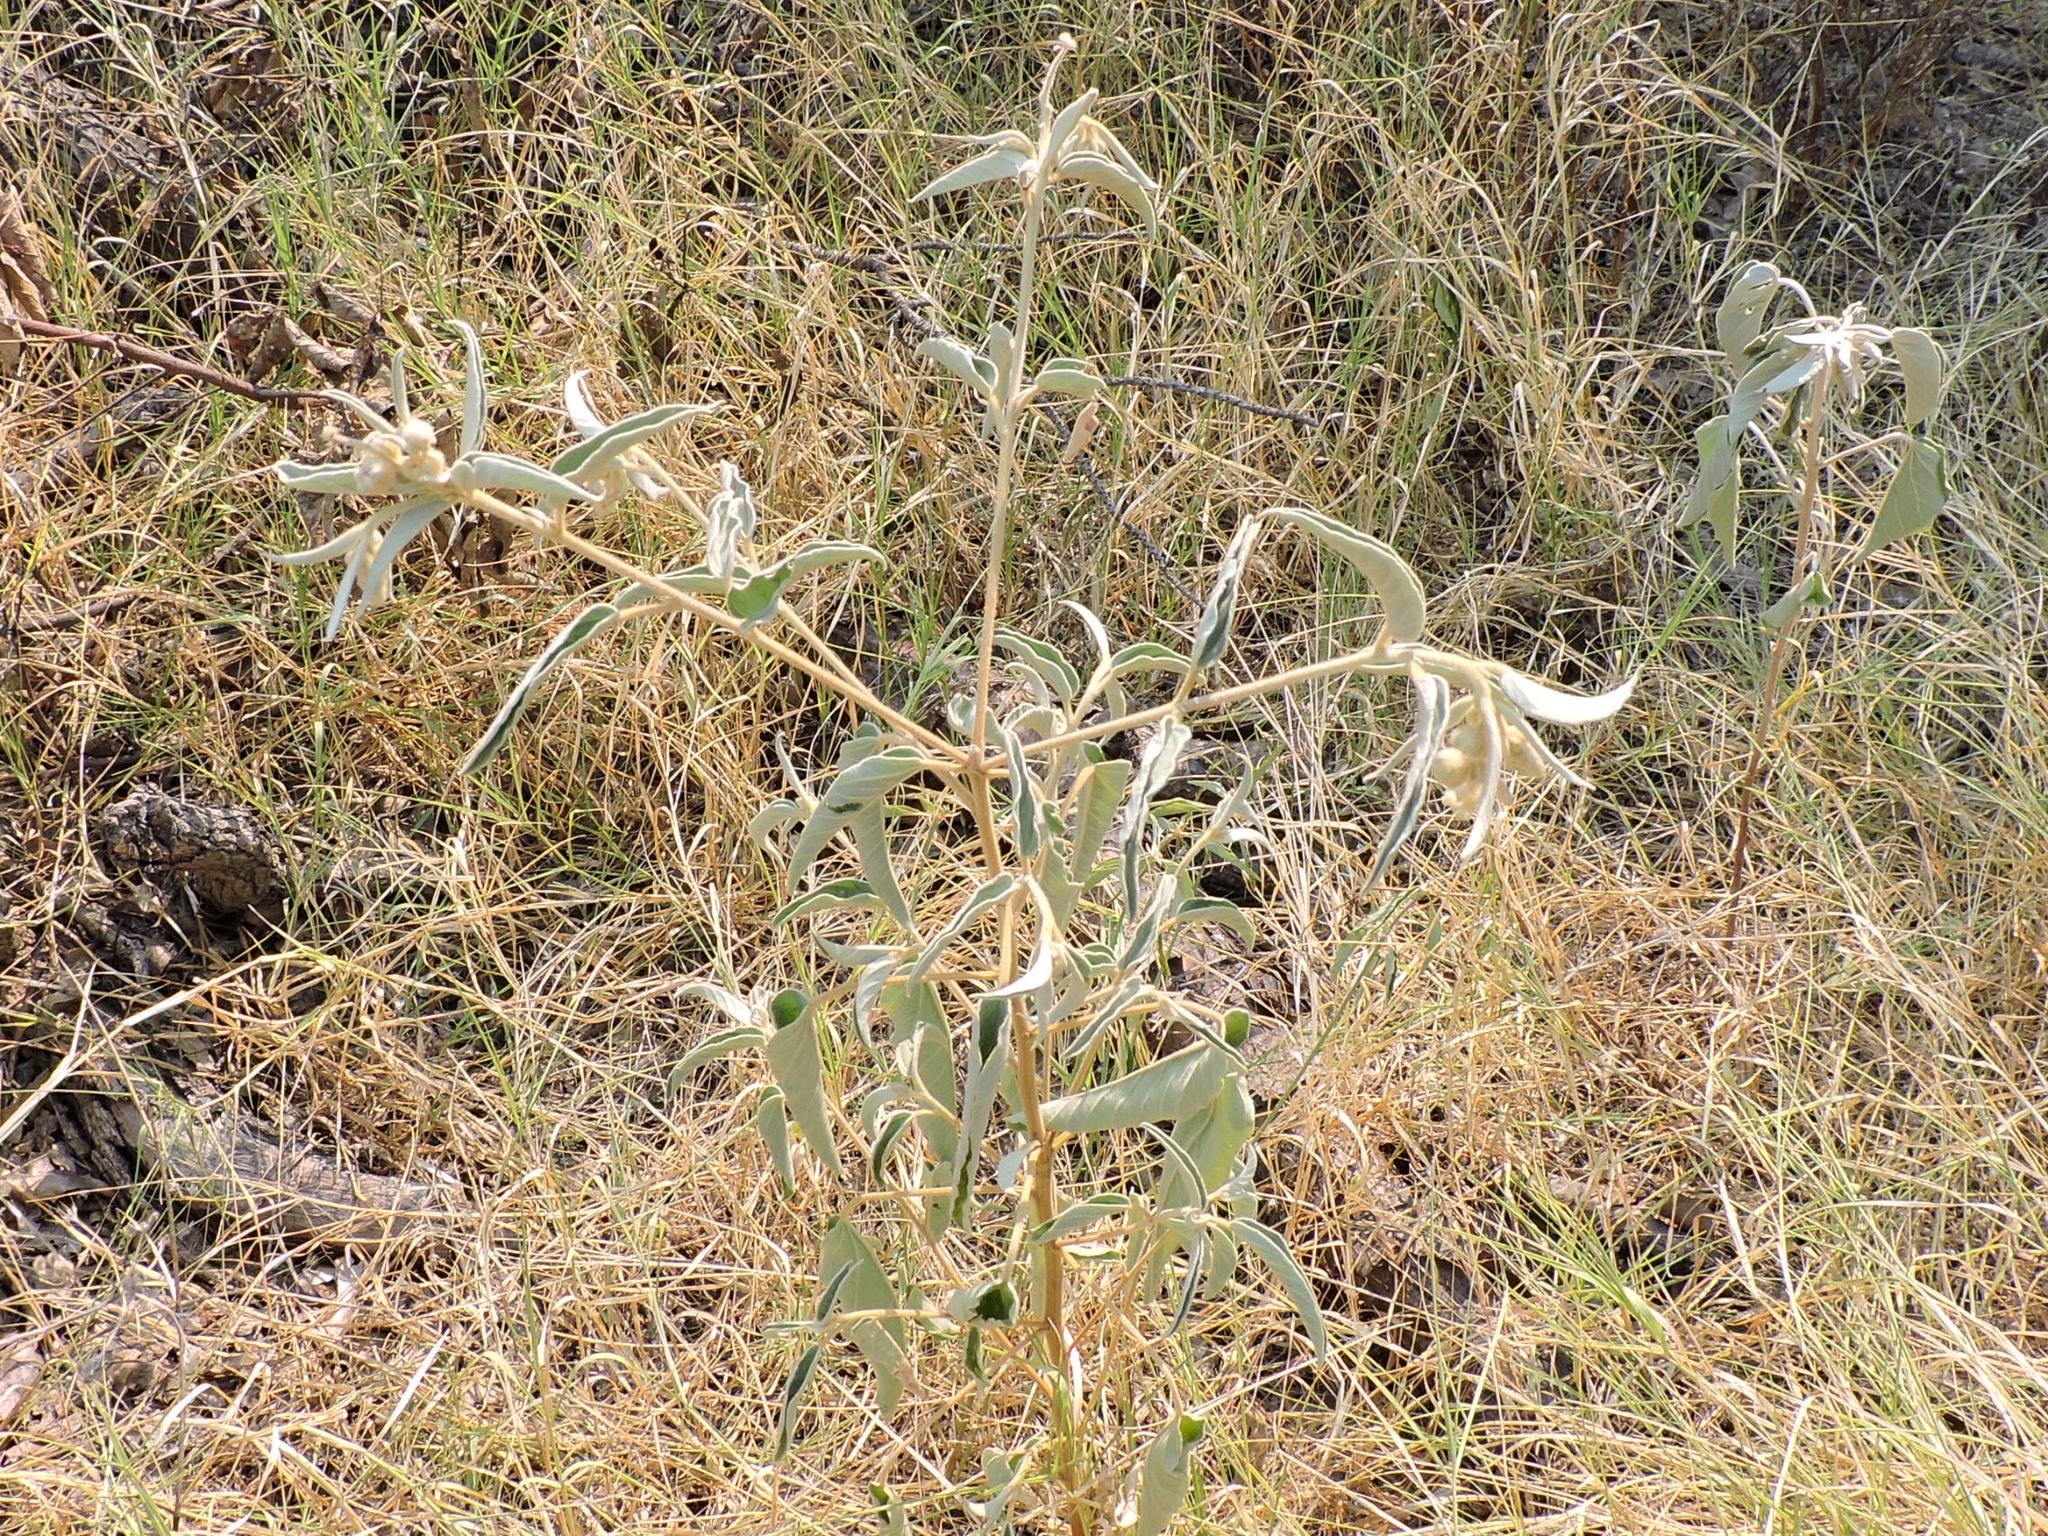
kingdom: Plantae
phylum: Tracheophyta
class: Magnoliopsida
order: Malpighiales
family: Euphorbiaceae
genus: Croton
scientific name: Croton lindheimeri
